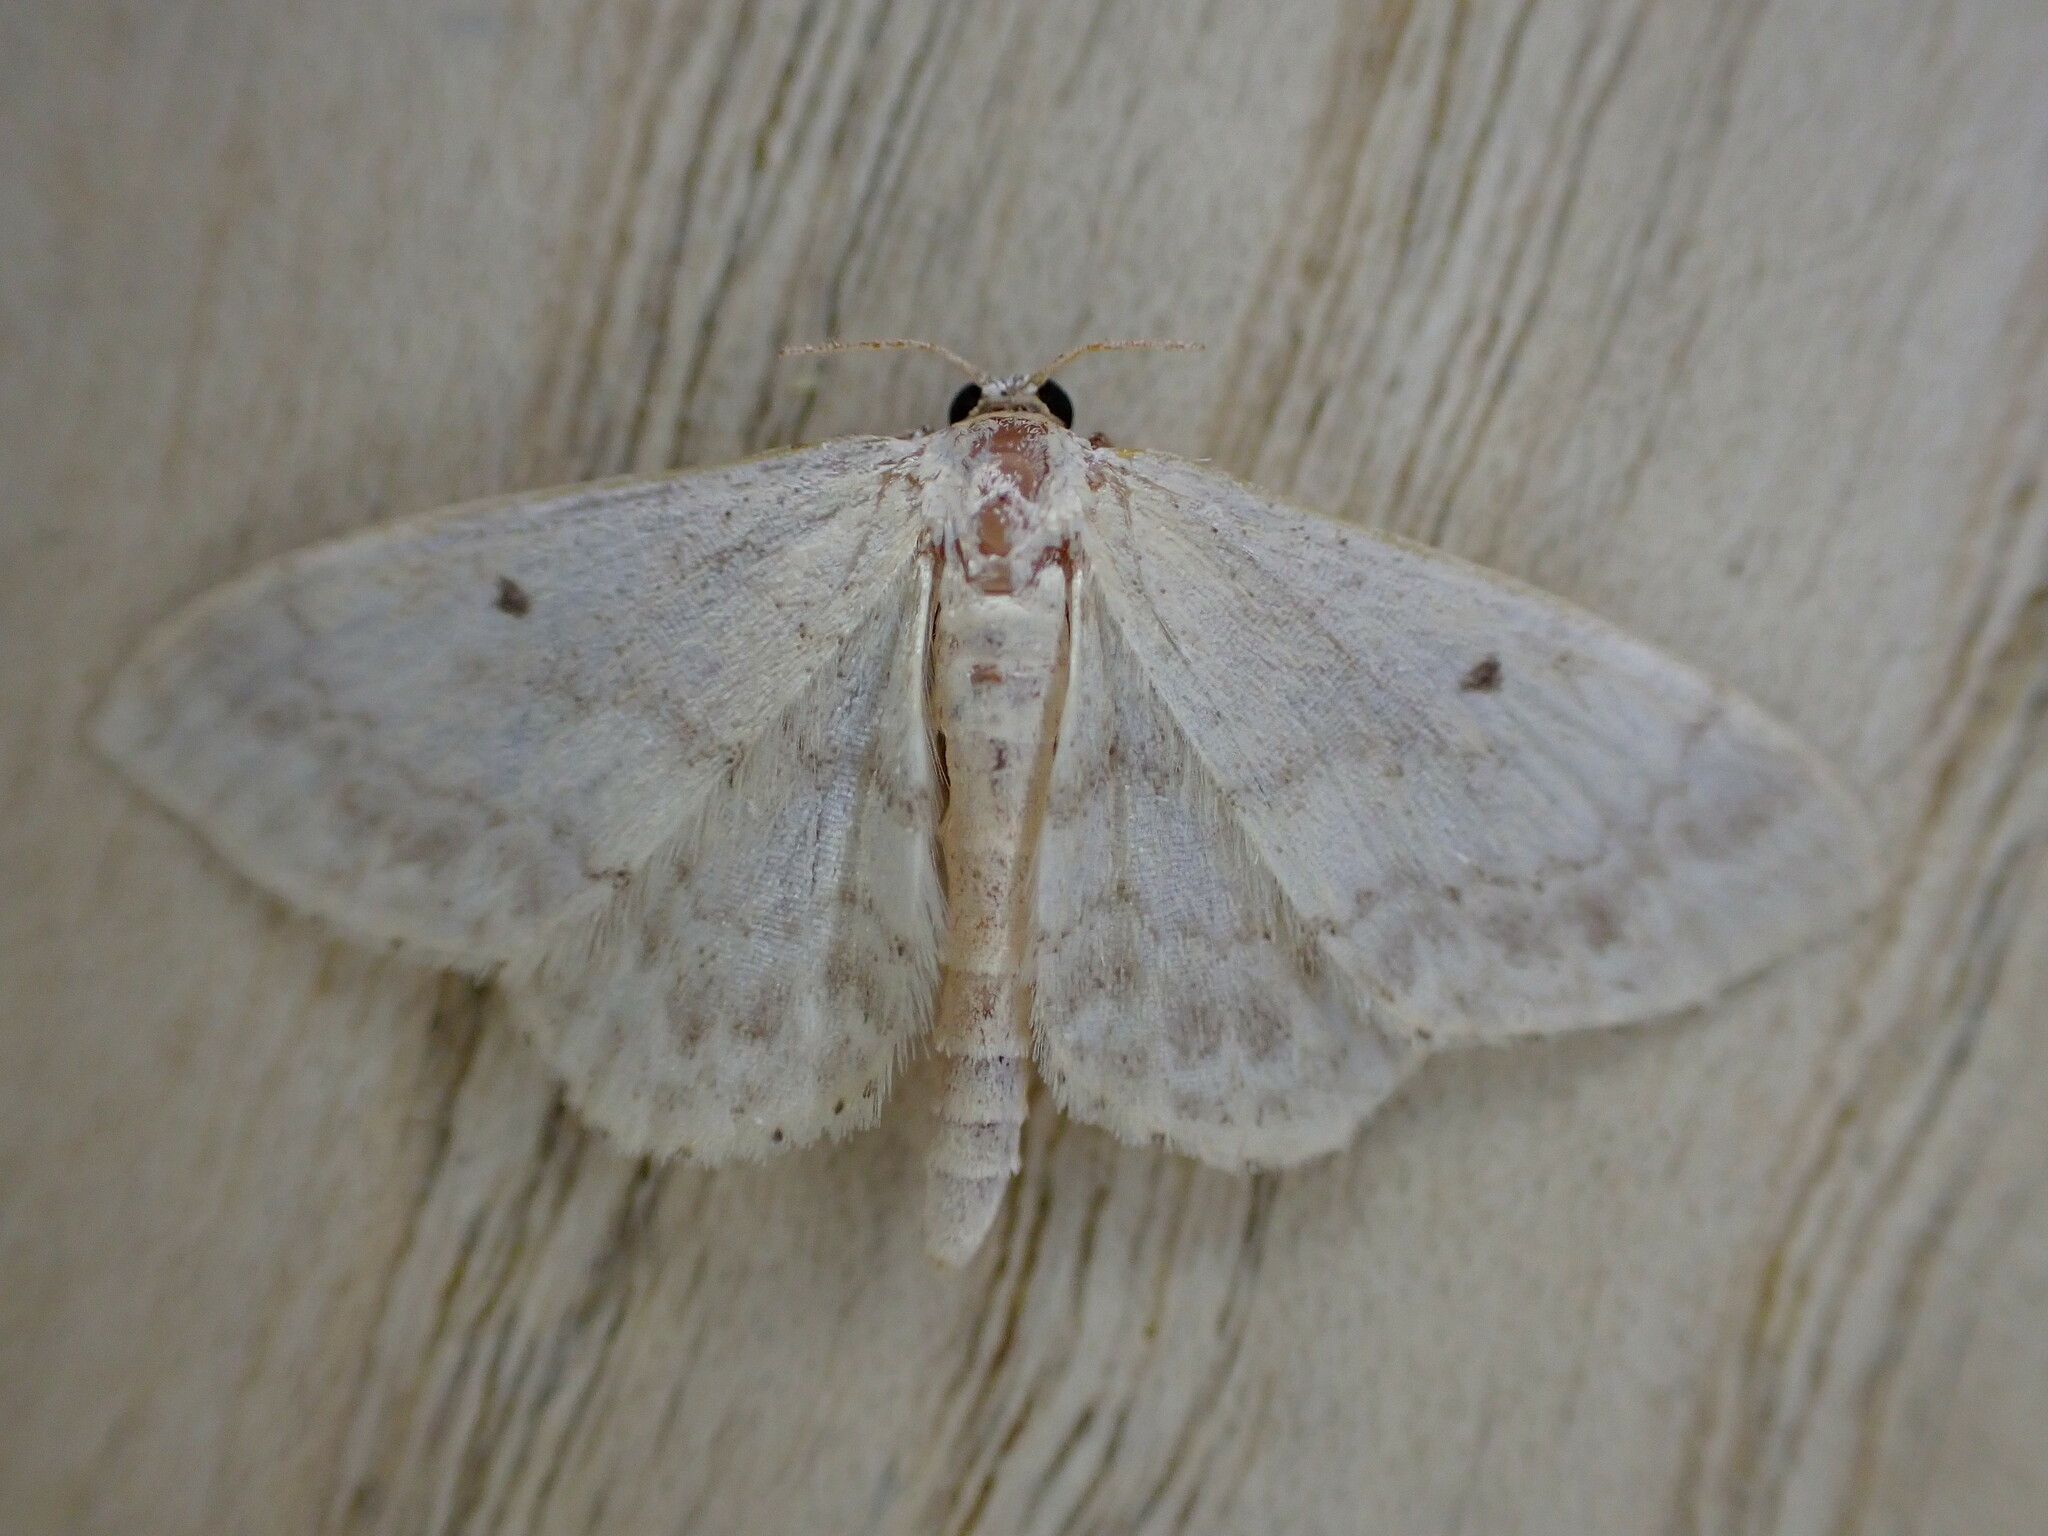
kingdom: Animalia
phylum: Arthropoda
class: Insecta
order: Lepidoptera
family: Geometridae
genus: Idaea
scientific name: Idaea biselata
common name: Small fan-footed wave
